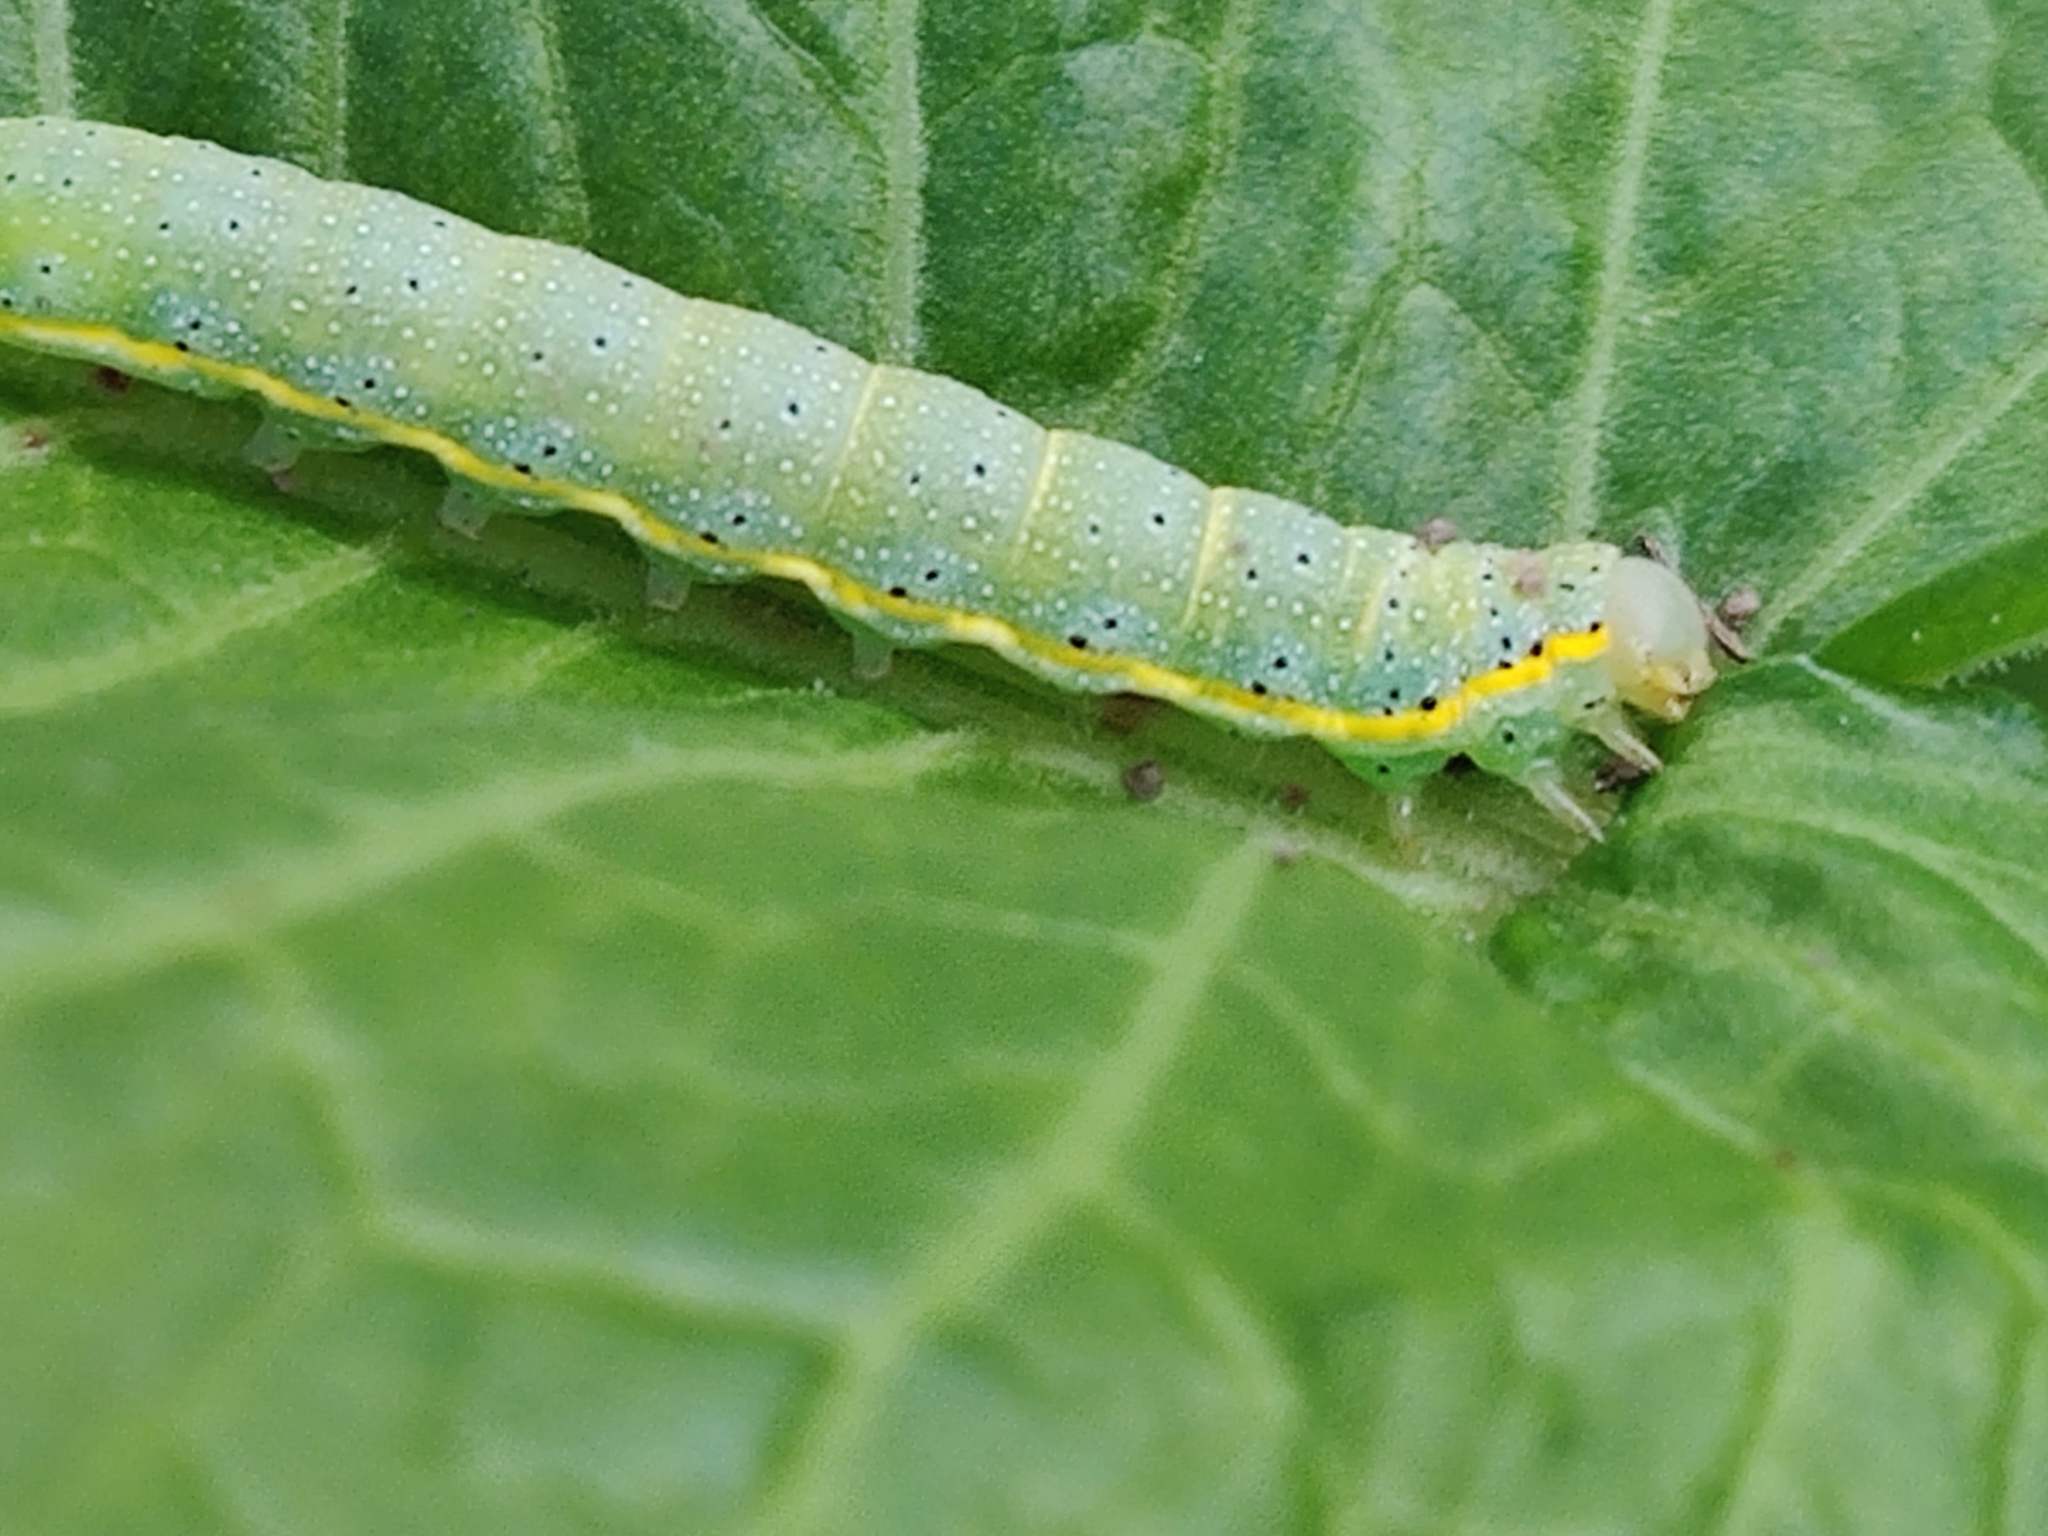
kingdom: Animalia
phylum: Arthropoda
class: Insecta
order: Lepidoptera
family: Noctuidae
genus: Lacanobia
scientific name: Lacanobia oleracea
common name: Bright-line brown-eye
